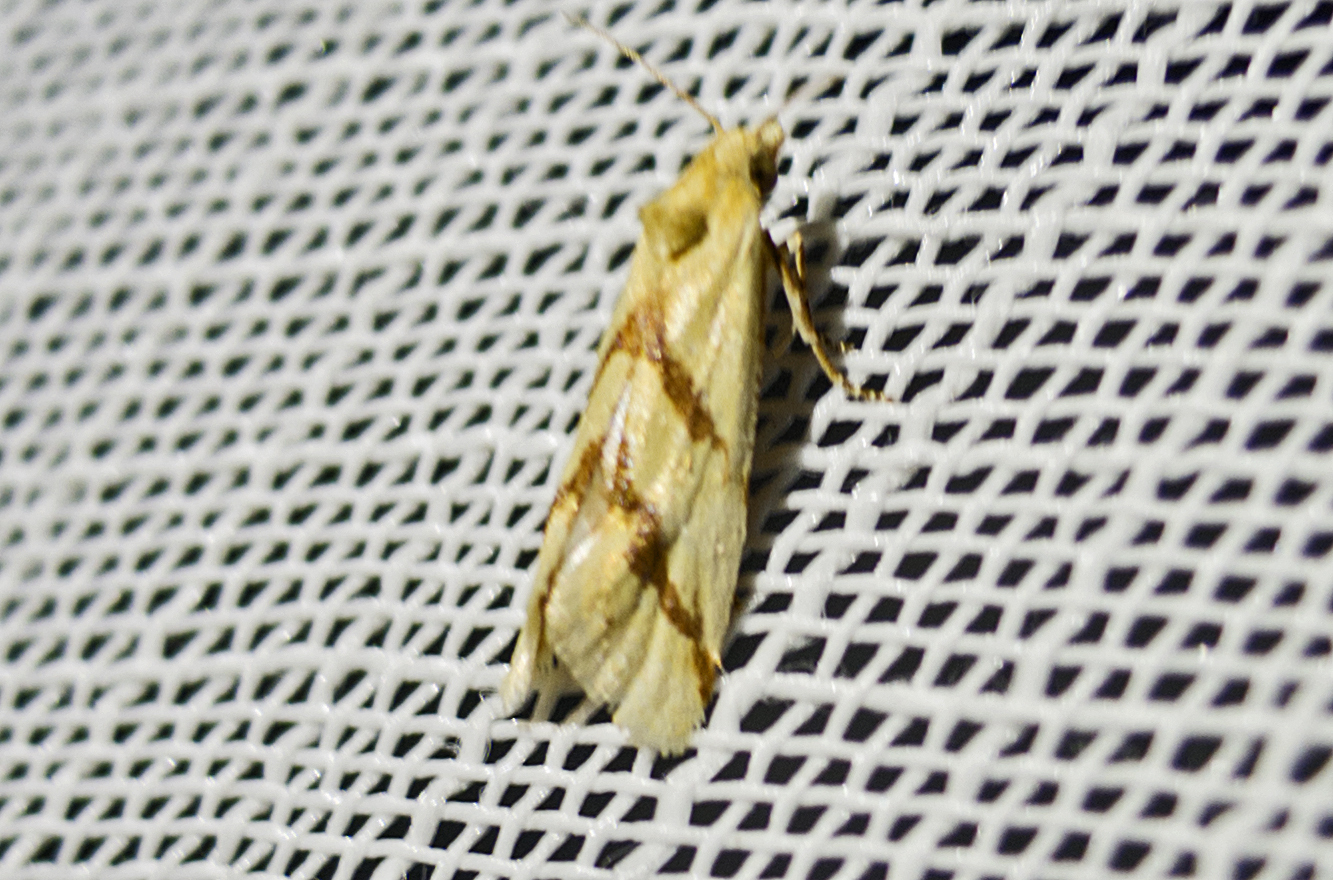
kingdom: Animalia
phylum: Arthropoda
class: Insecta
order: Lepidoptera
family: Tortricidae
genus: Aethes
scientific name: Aethes
